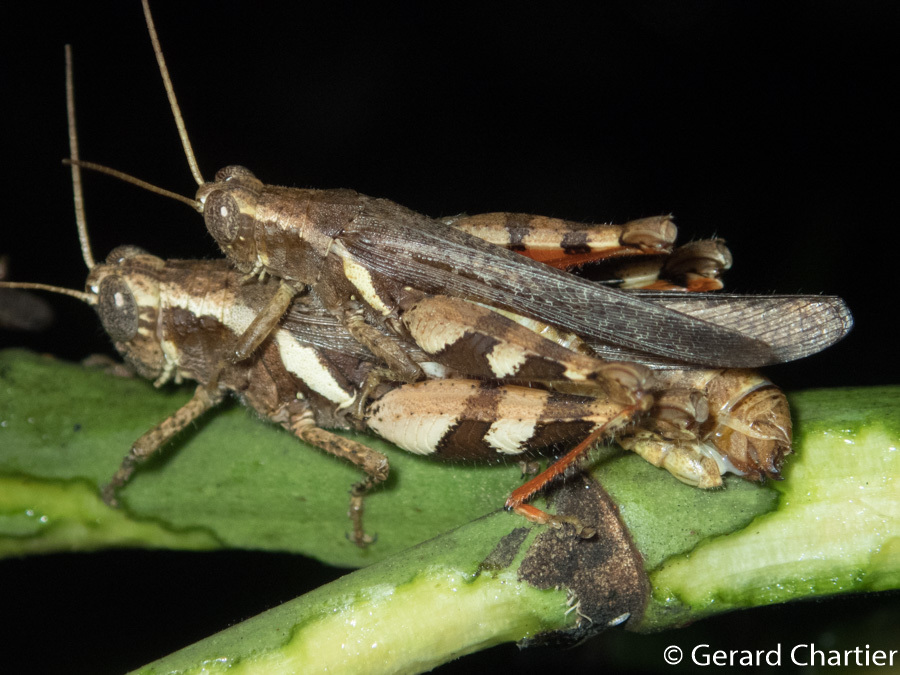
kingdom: Animalia
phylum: Arthropoda
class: Insecta
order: Orthoptera
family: Acrididae
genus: Xenocatantops
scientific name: Xenocatantops humile
